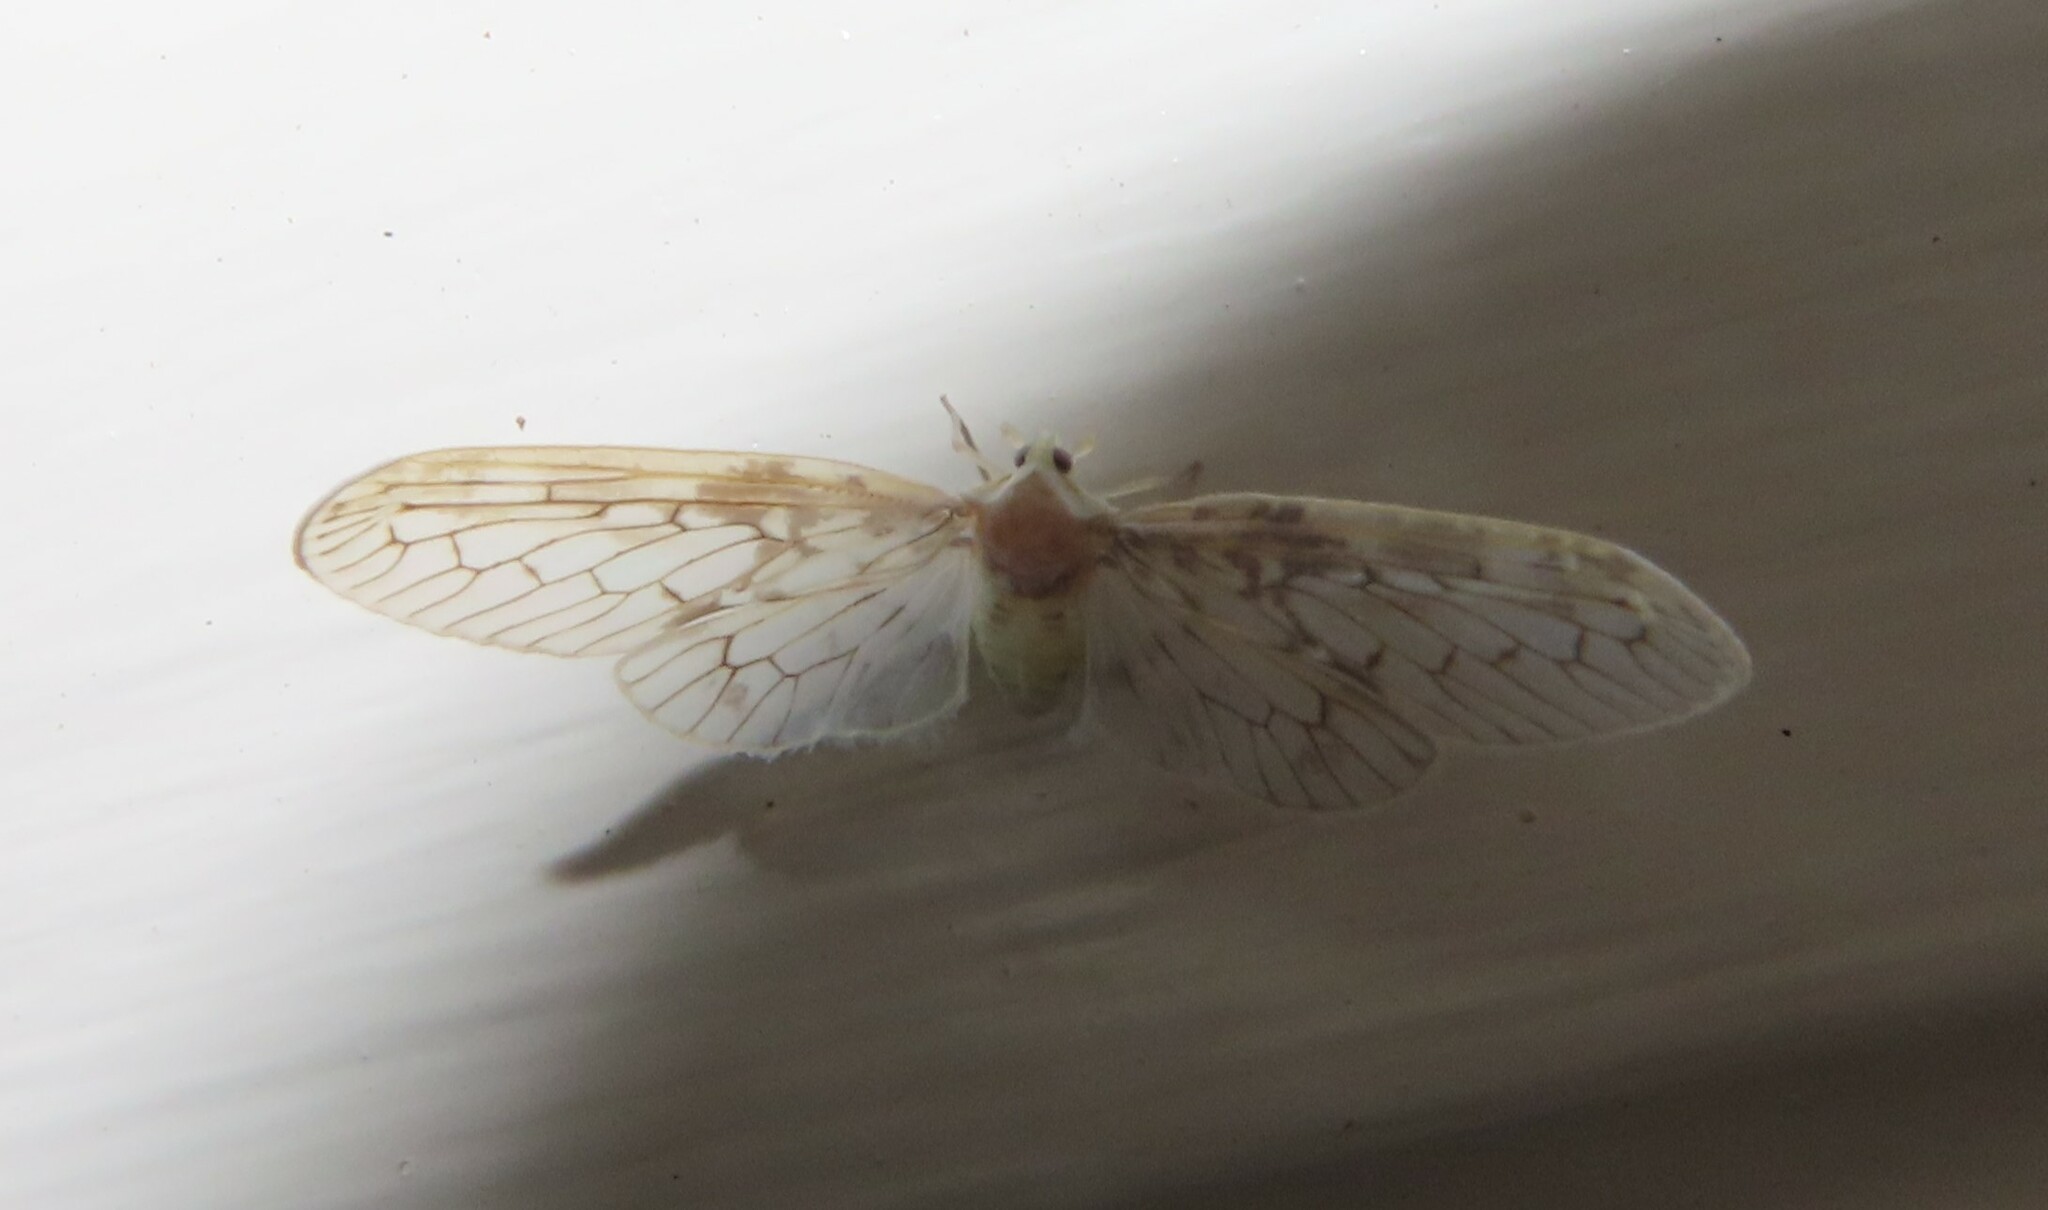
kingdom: Animalia
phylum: Arthropoda
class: Insecta
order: Hemiptera
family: Derbidae
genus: Paramysidia
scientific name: Paramysidia mississippiensis
